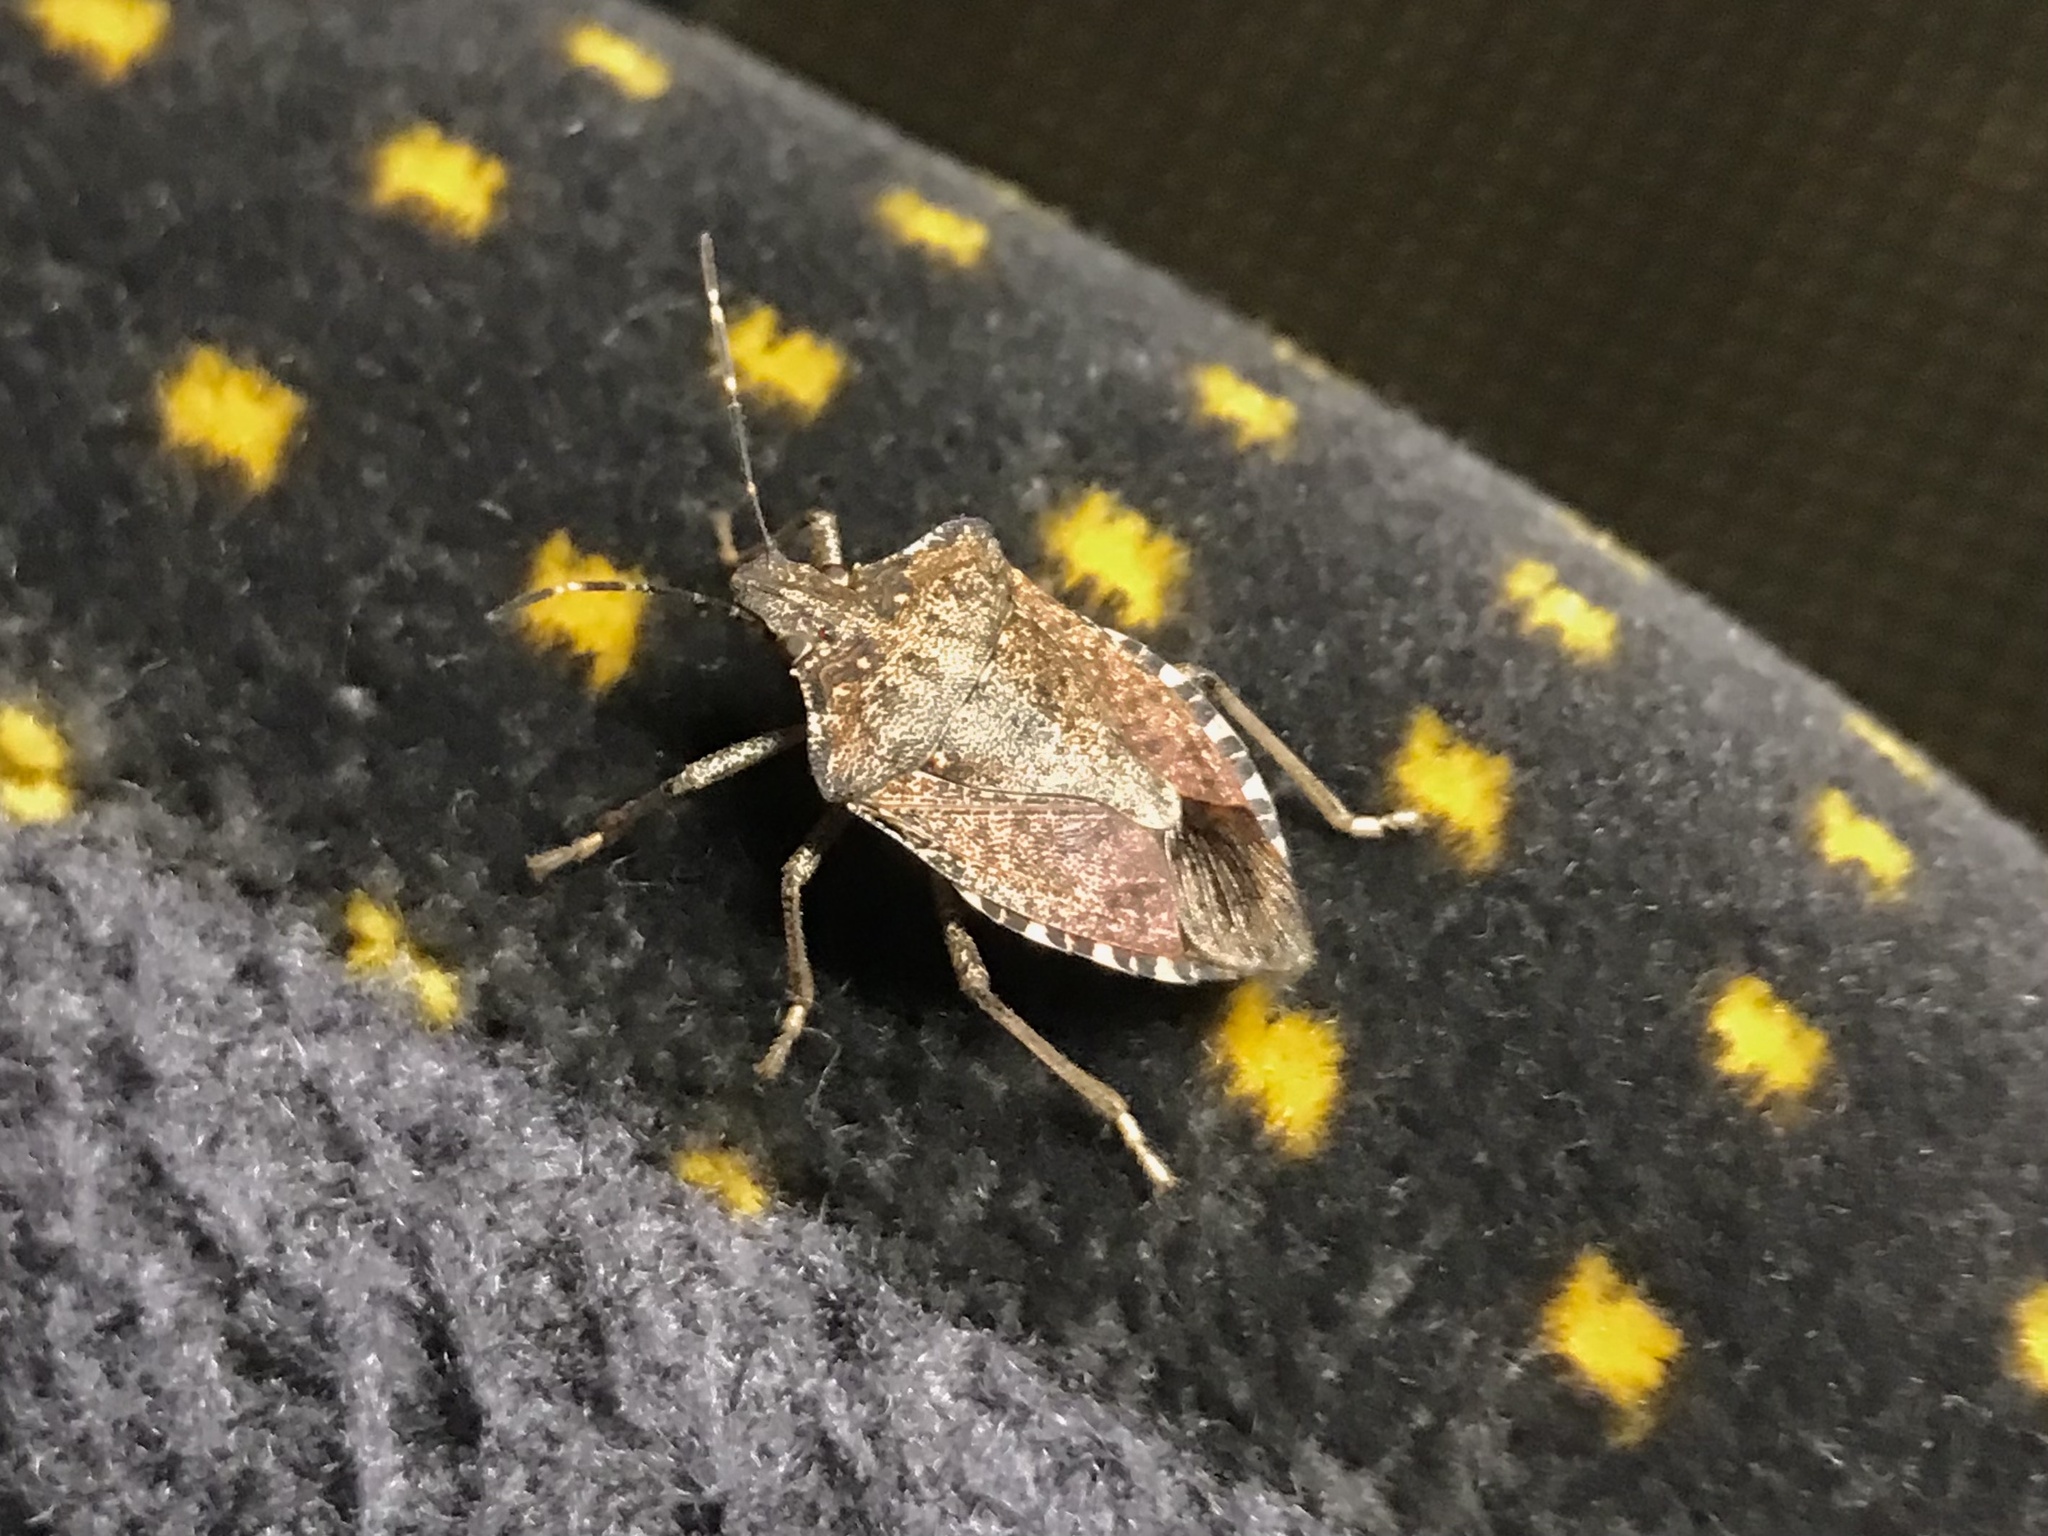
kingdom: Animalia
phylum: Arthropoda
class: Insecta
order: Hemiptera
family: Pentatomidae
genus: Halyomorpha
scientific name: Halyomorpha halys
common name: Brown marmorated stink bug
